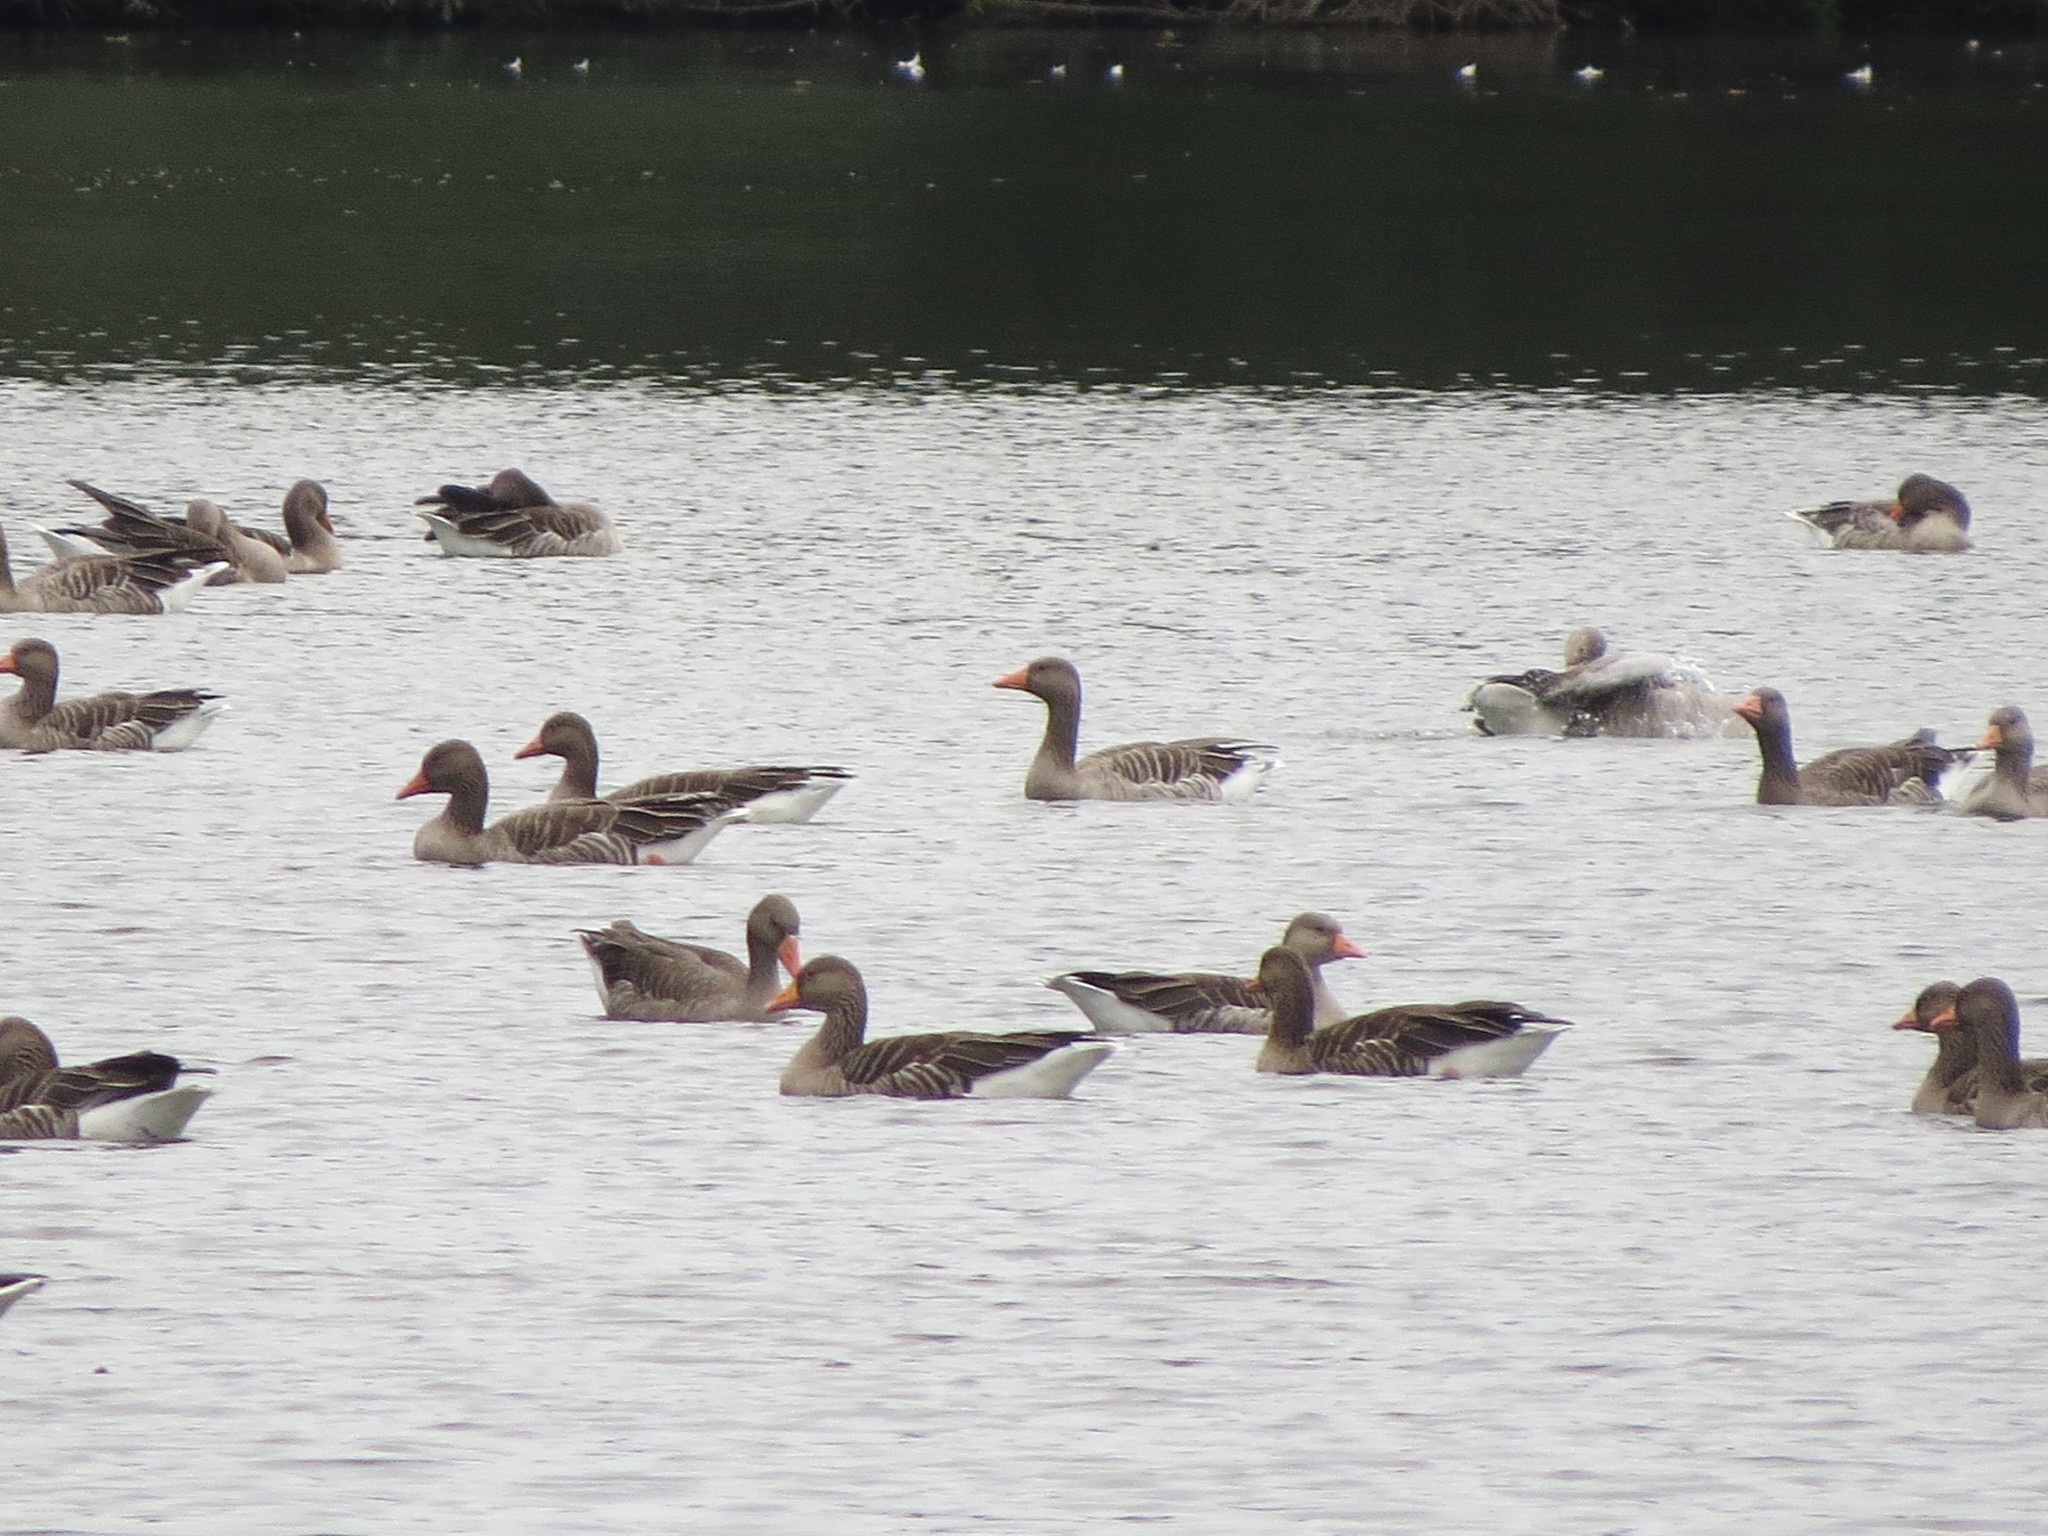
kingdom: Animalia
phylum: Chordata
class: Aves
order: Anseriformes
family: Anatidae
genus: Anser
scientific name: Anser anser
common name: Greylag goose
